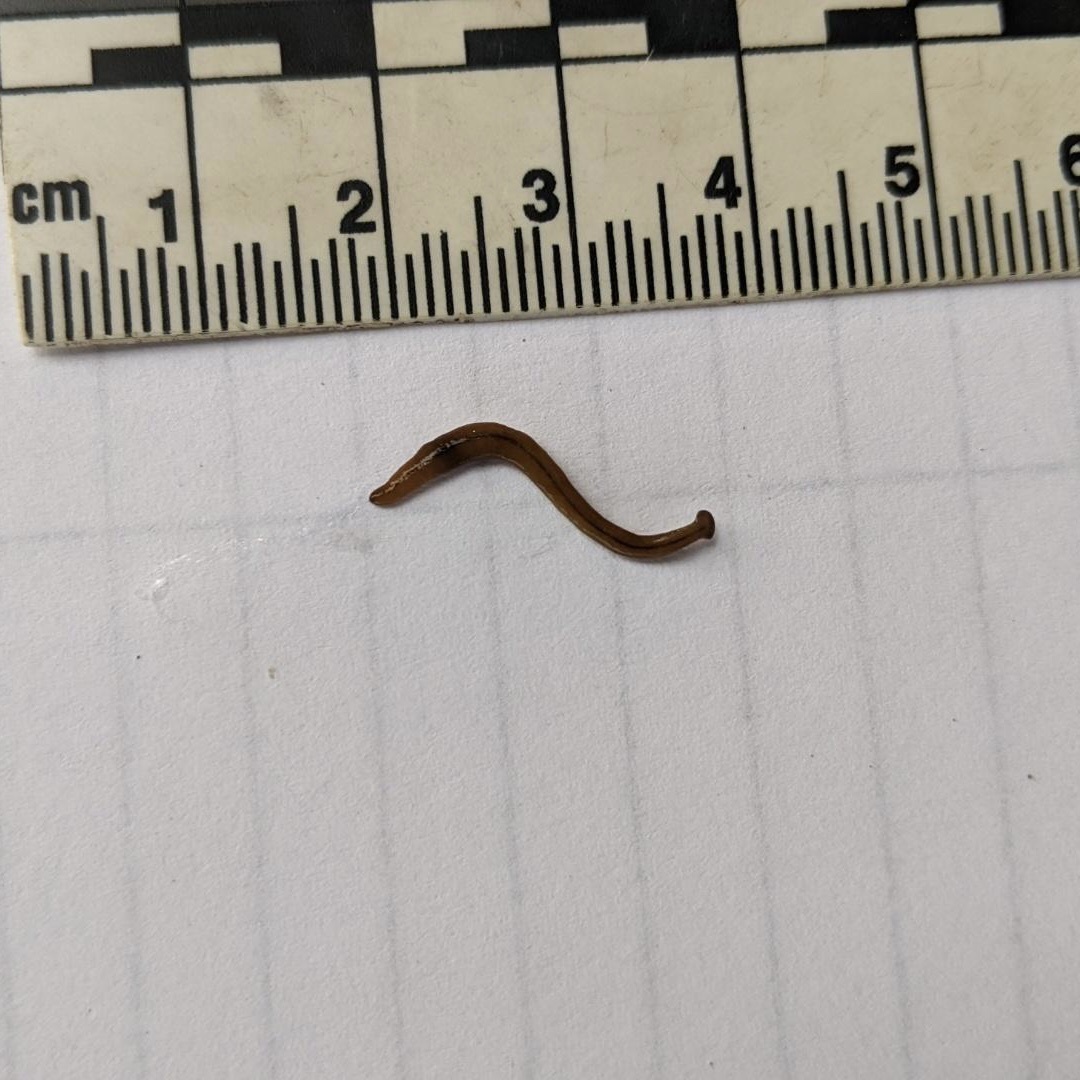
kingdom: Animalia
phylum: Platyhelminthes
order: Tricladida
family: Geoplanidae
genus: Bipalium
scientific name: Bipalium adventitium
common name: Land planarian
